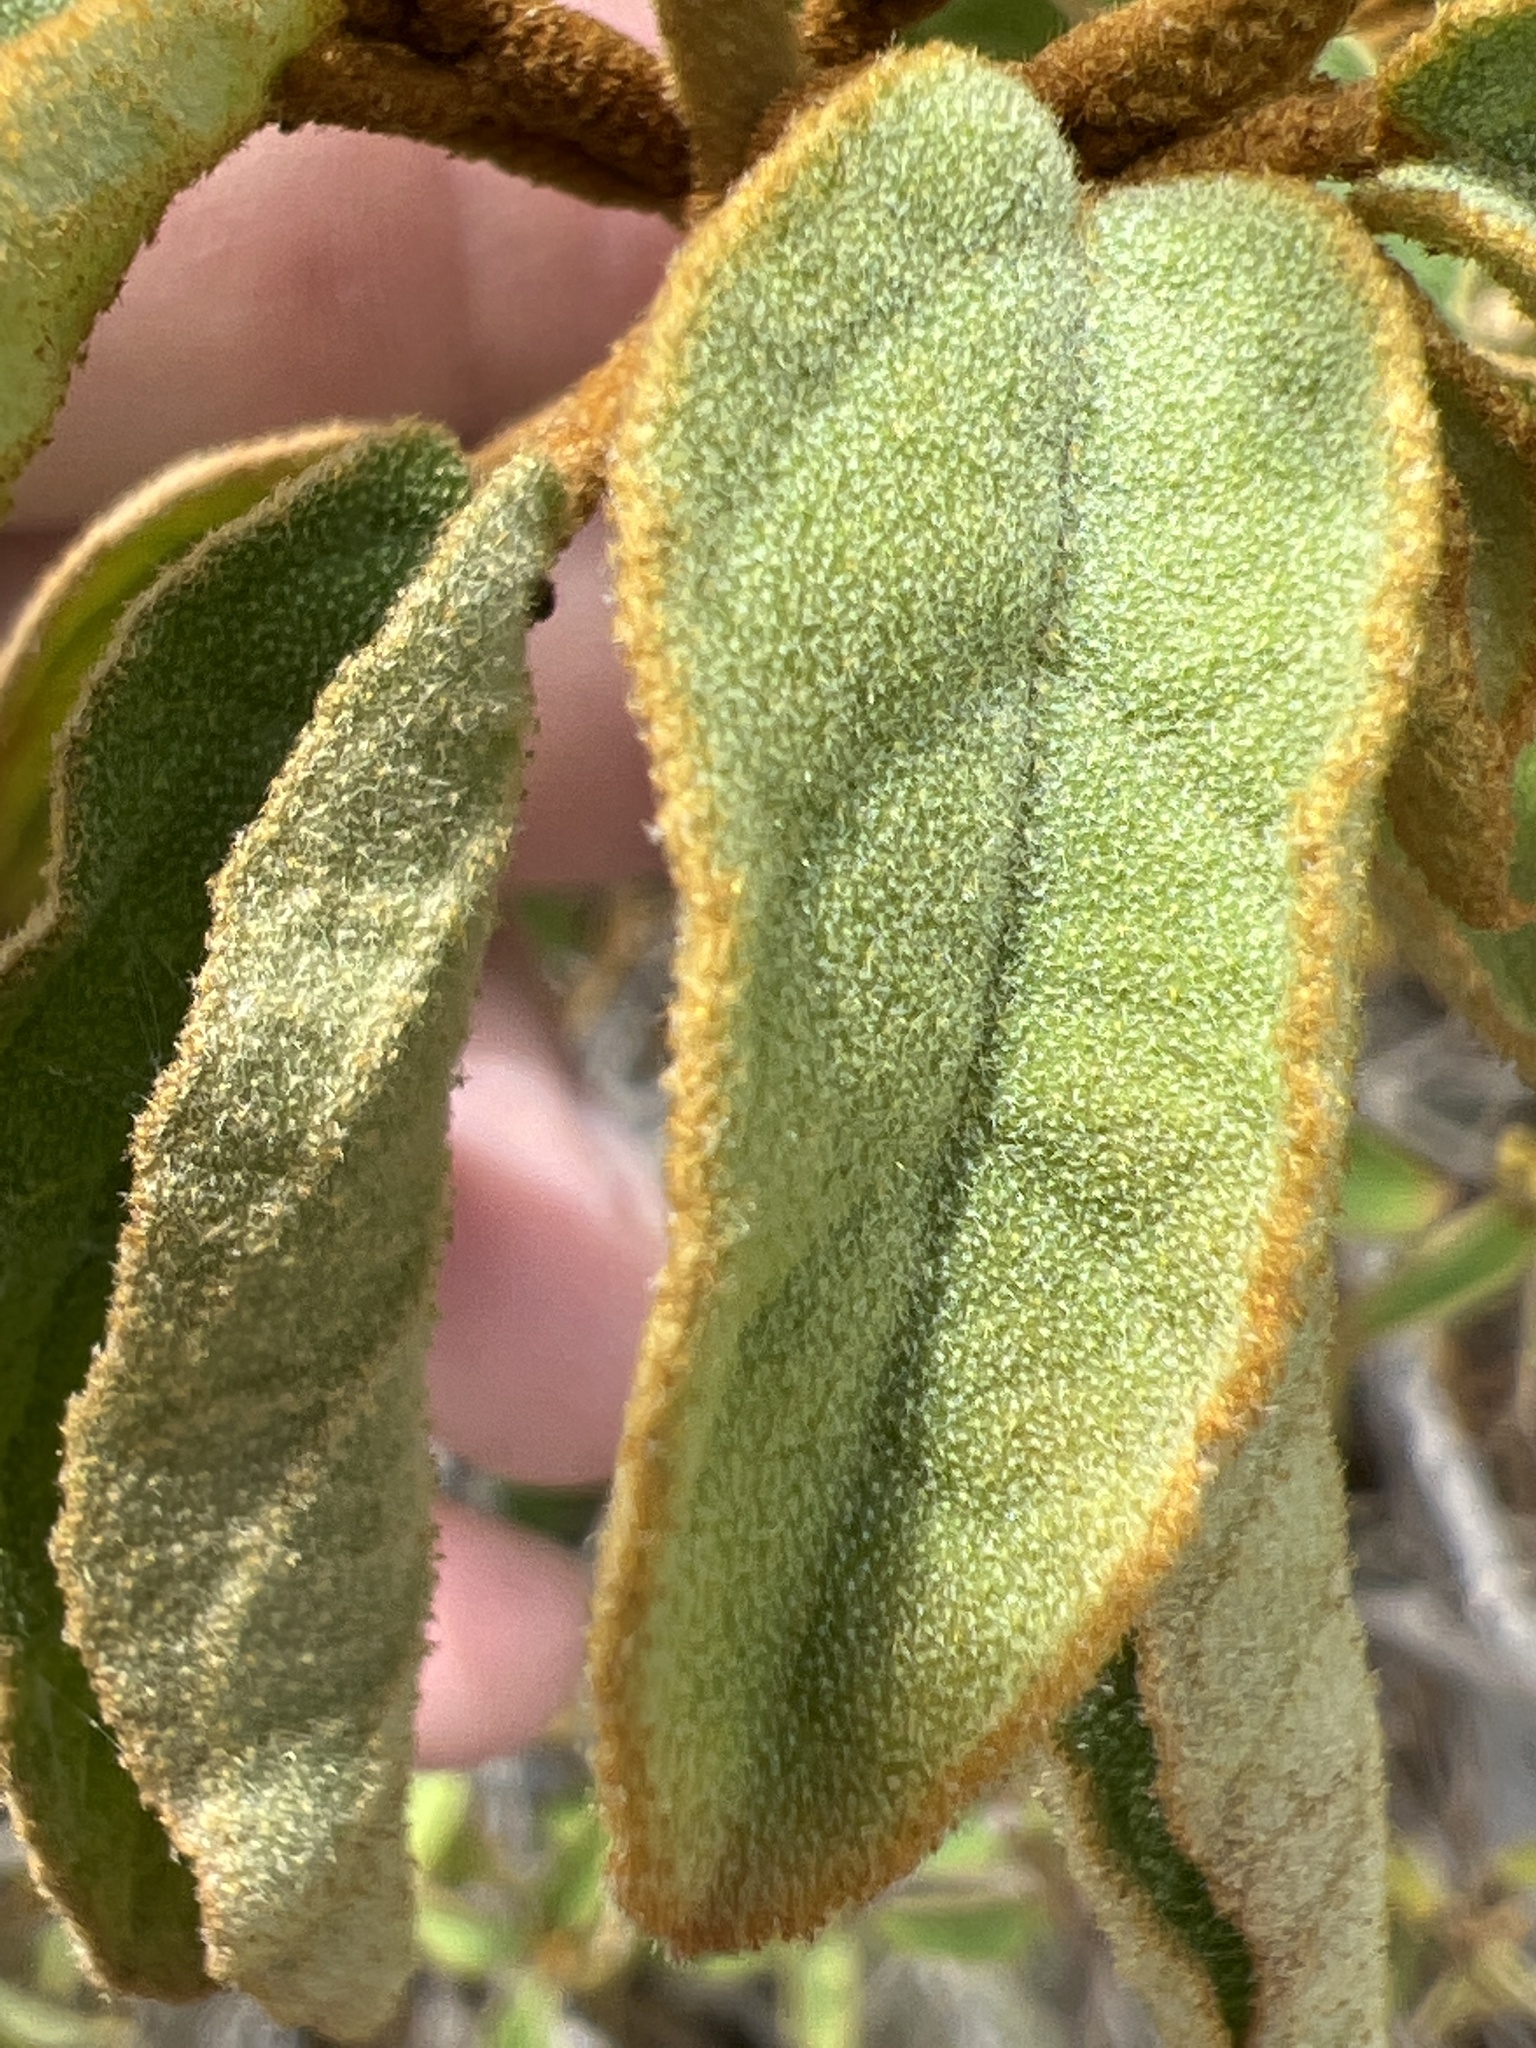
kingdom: Plantae
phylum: Tracheophyta
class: Magnoliopsida
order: Malpighiales
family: Euphorbiaceae
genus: Croton
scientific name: Croton flavens
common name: Yellow balsam
